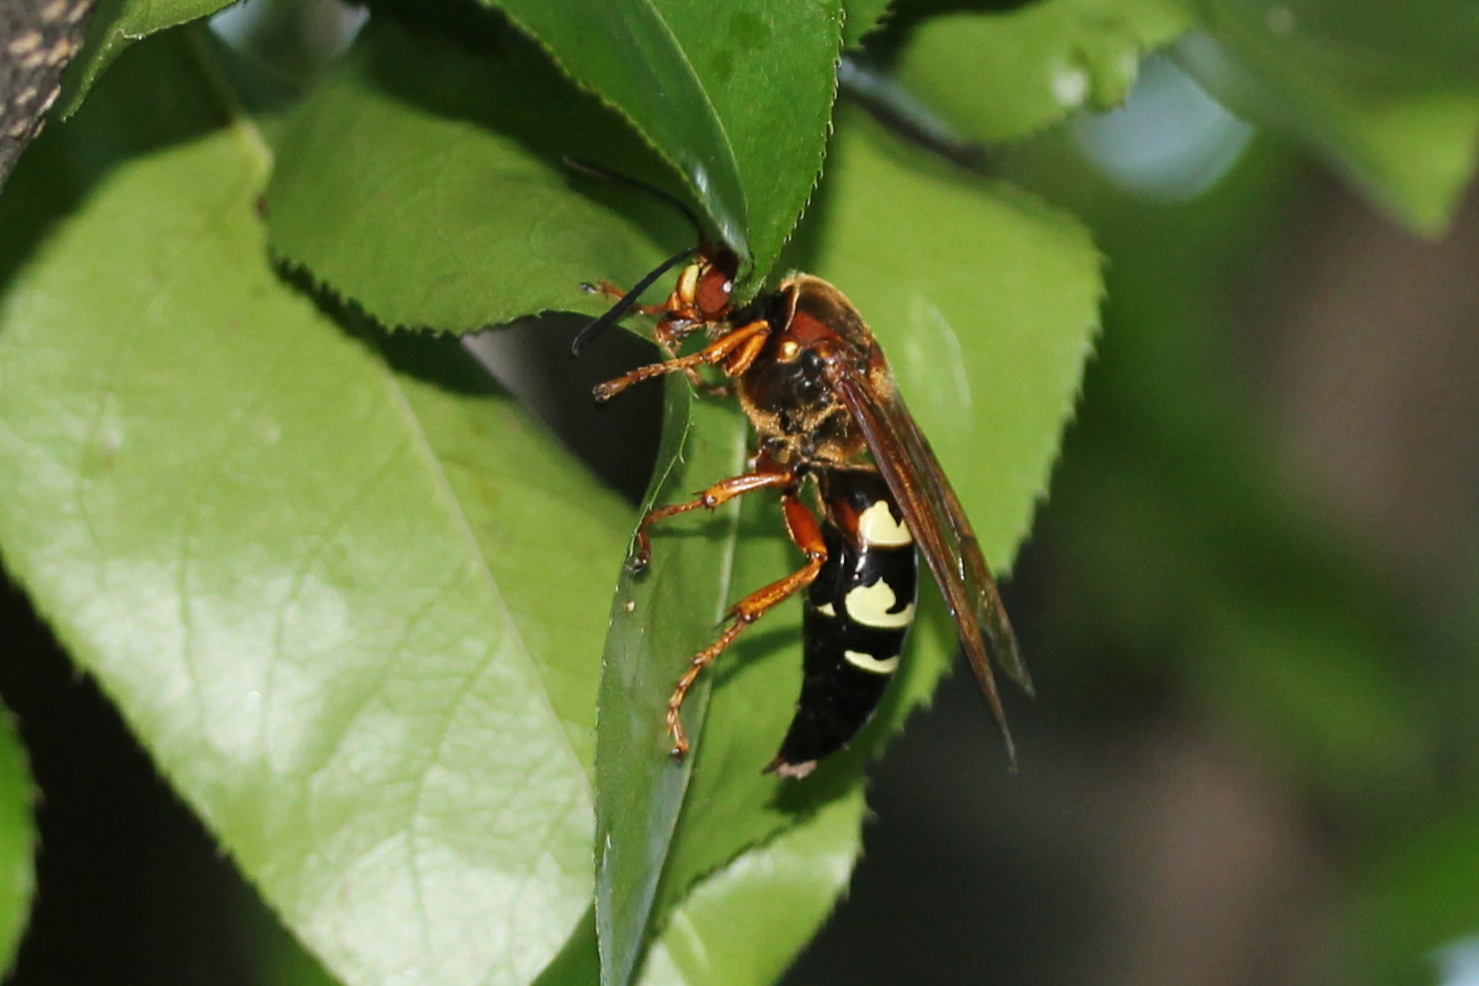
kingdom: Animalia
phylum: Arthropoda
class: Insecta
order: Hymenoptera
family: Crabronidae
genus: Sphecius
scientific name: Sphecius speciosus
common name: Cicada killer
